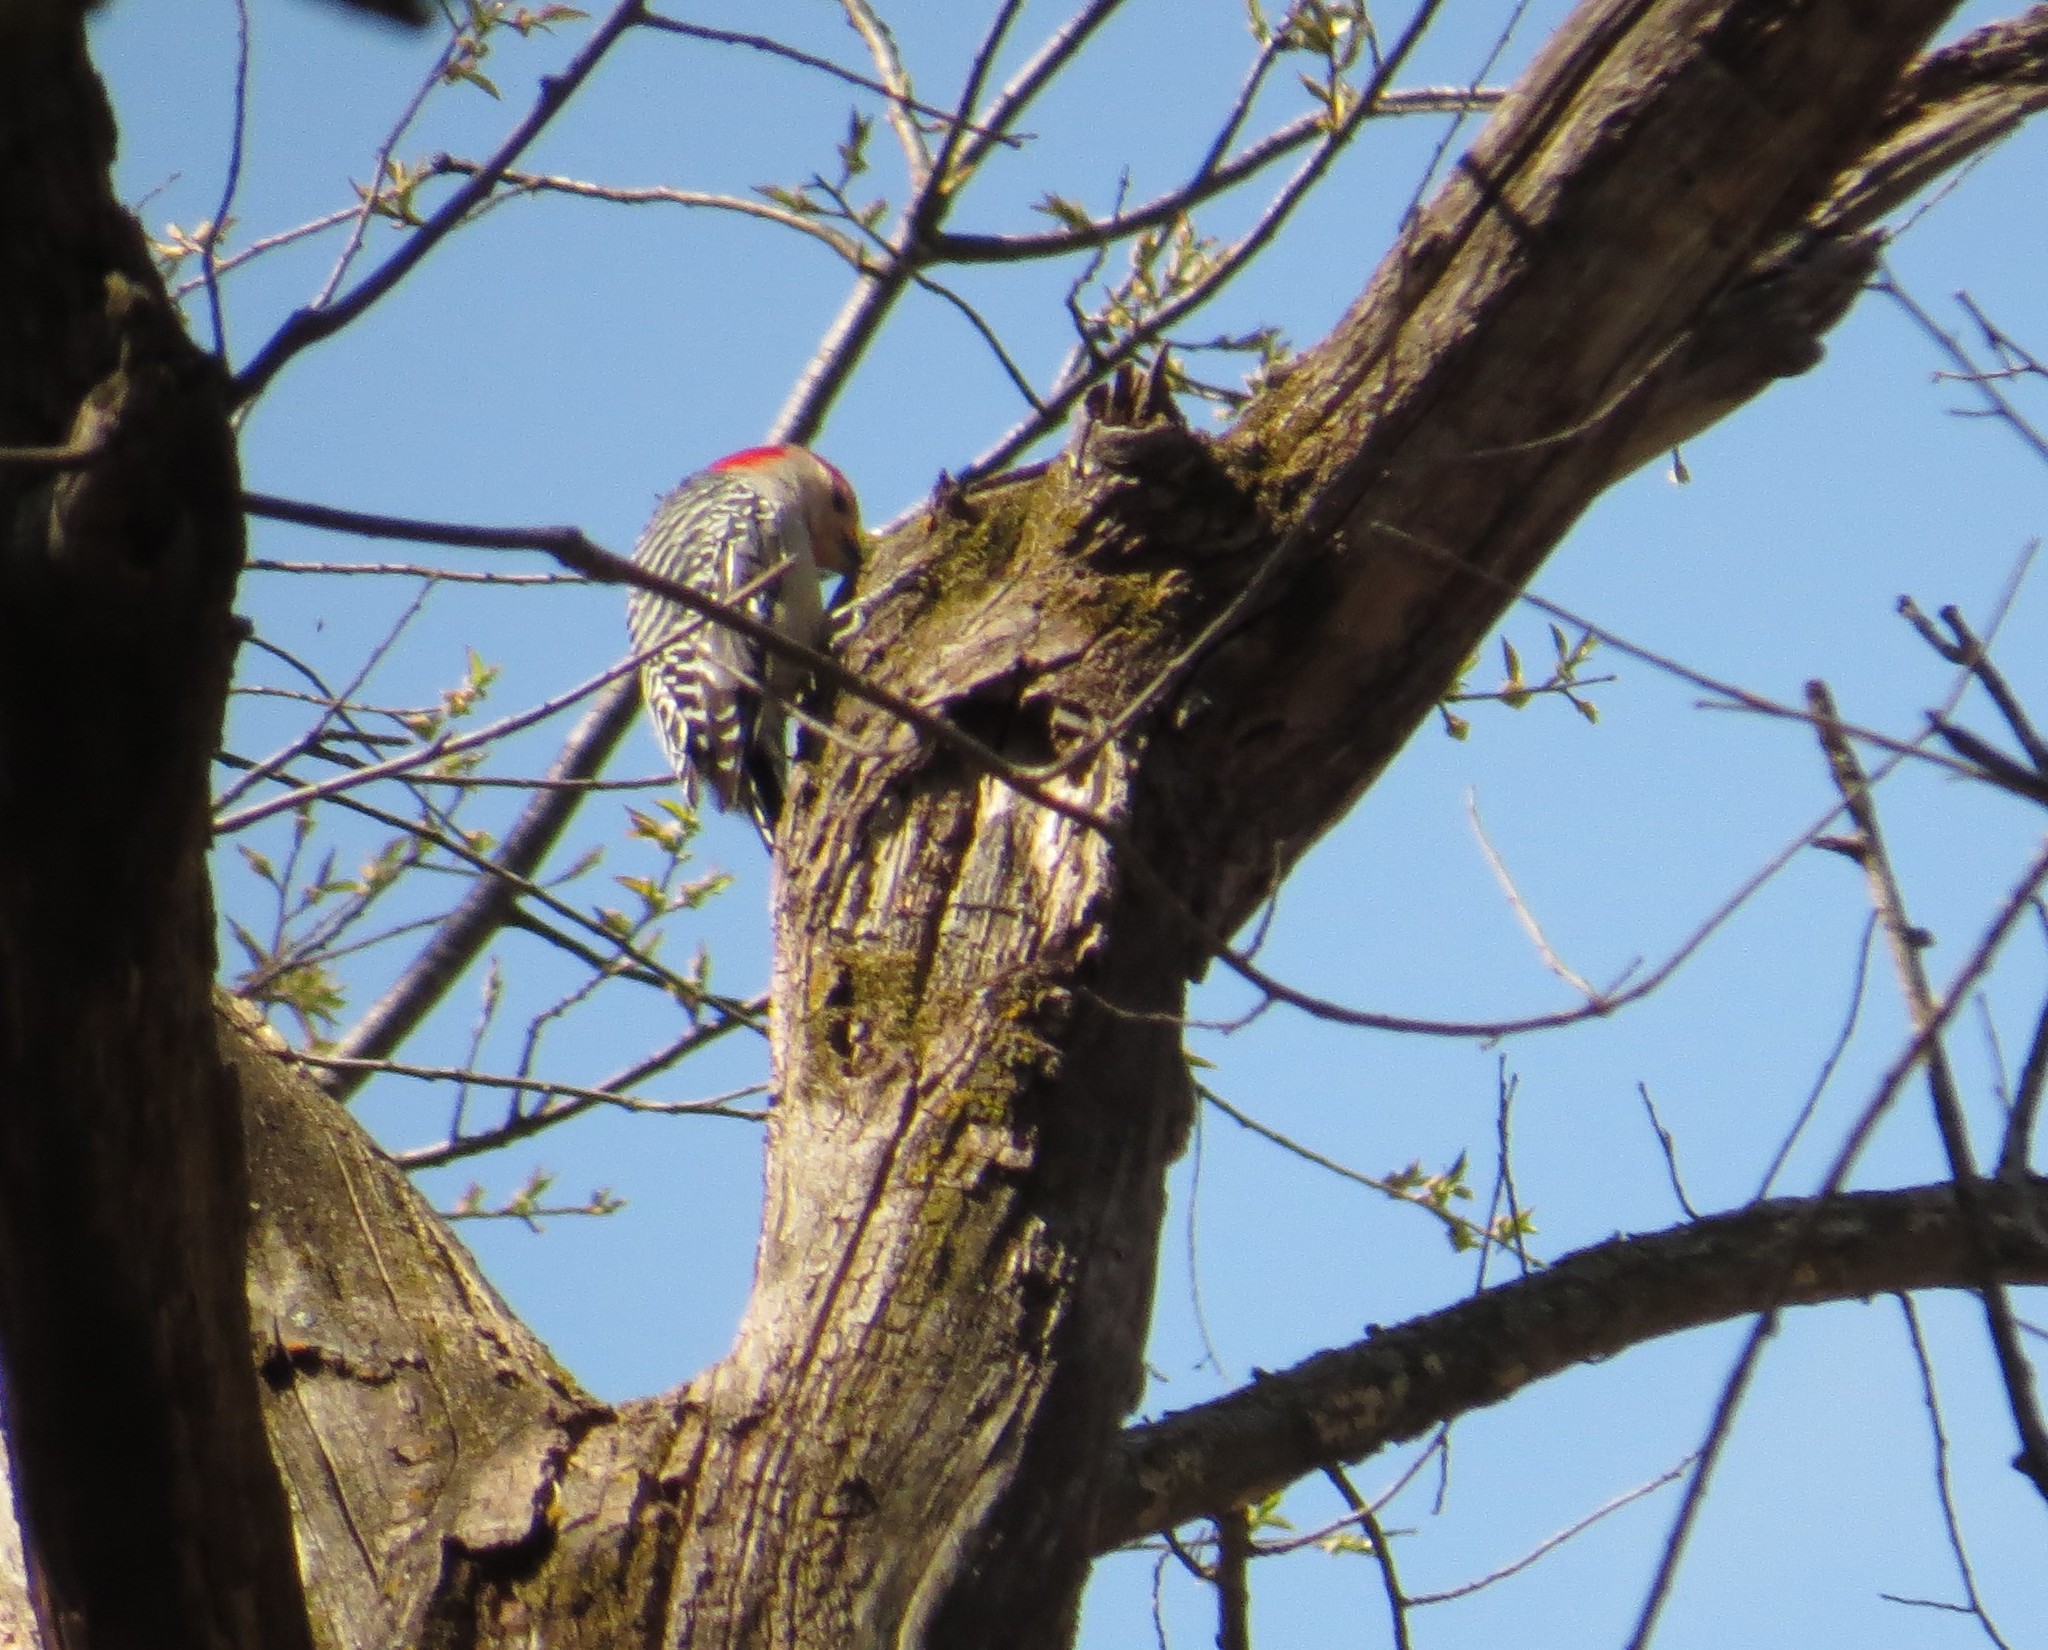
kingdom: Animalia
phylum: Chordata
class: Aves
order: Piciformes
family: Picidae
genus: Melanerpes
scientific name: Melanerpes carolinus
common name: Red-bellied woodpecker
